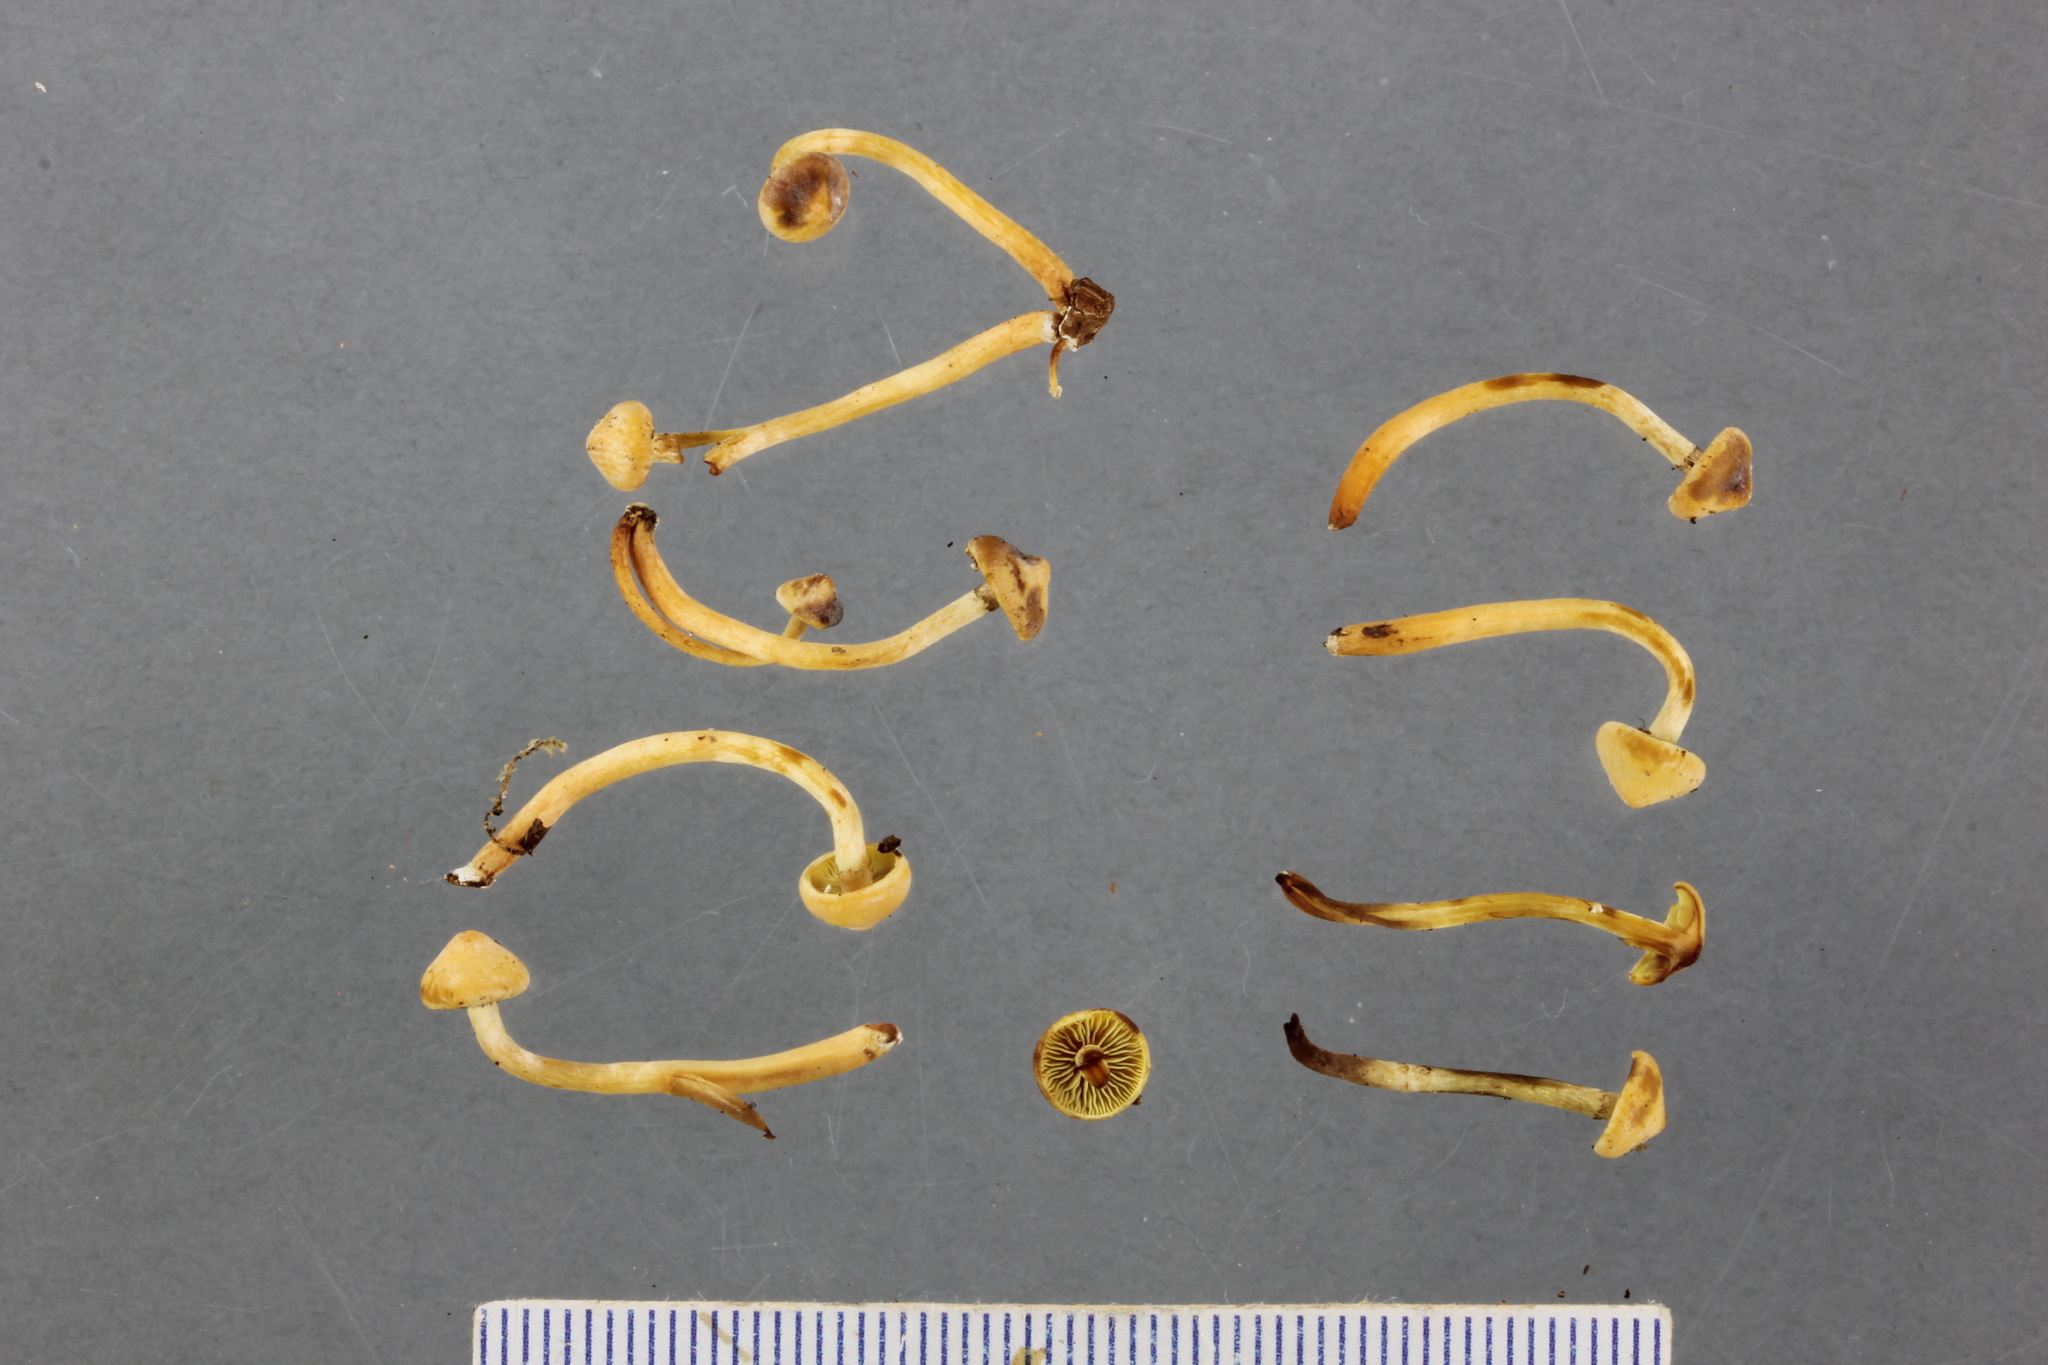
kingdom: Fungi
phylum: Basidiomycota
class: Agaricomycetes
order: Agaricales
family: Strophariaceae
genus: Hypholoma
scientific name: Hypholoma acutum
